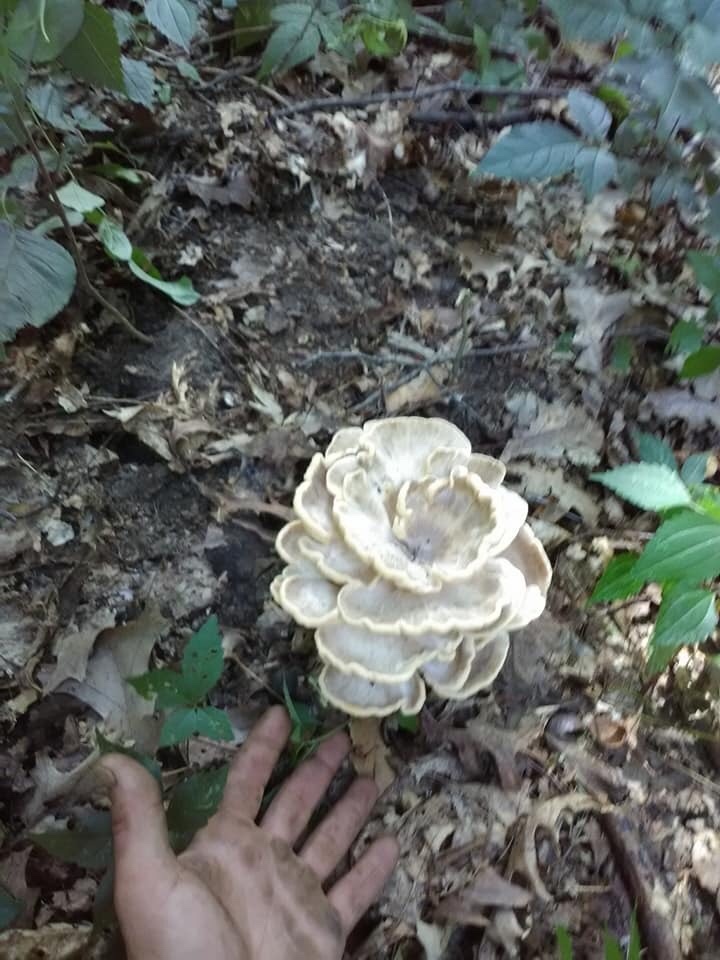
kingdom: Fungi
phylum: Basidiomycota
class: Agaricomycetes
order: Polyporales
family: Meripilaceae
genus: Meripilus
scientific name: Meripilus sumstinei
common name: Black-staining polypore
